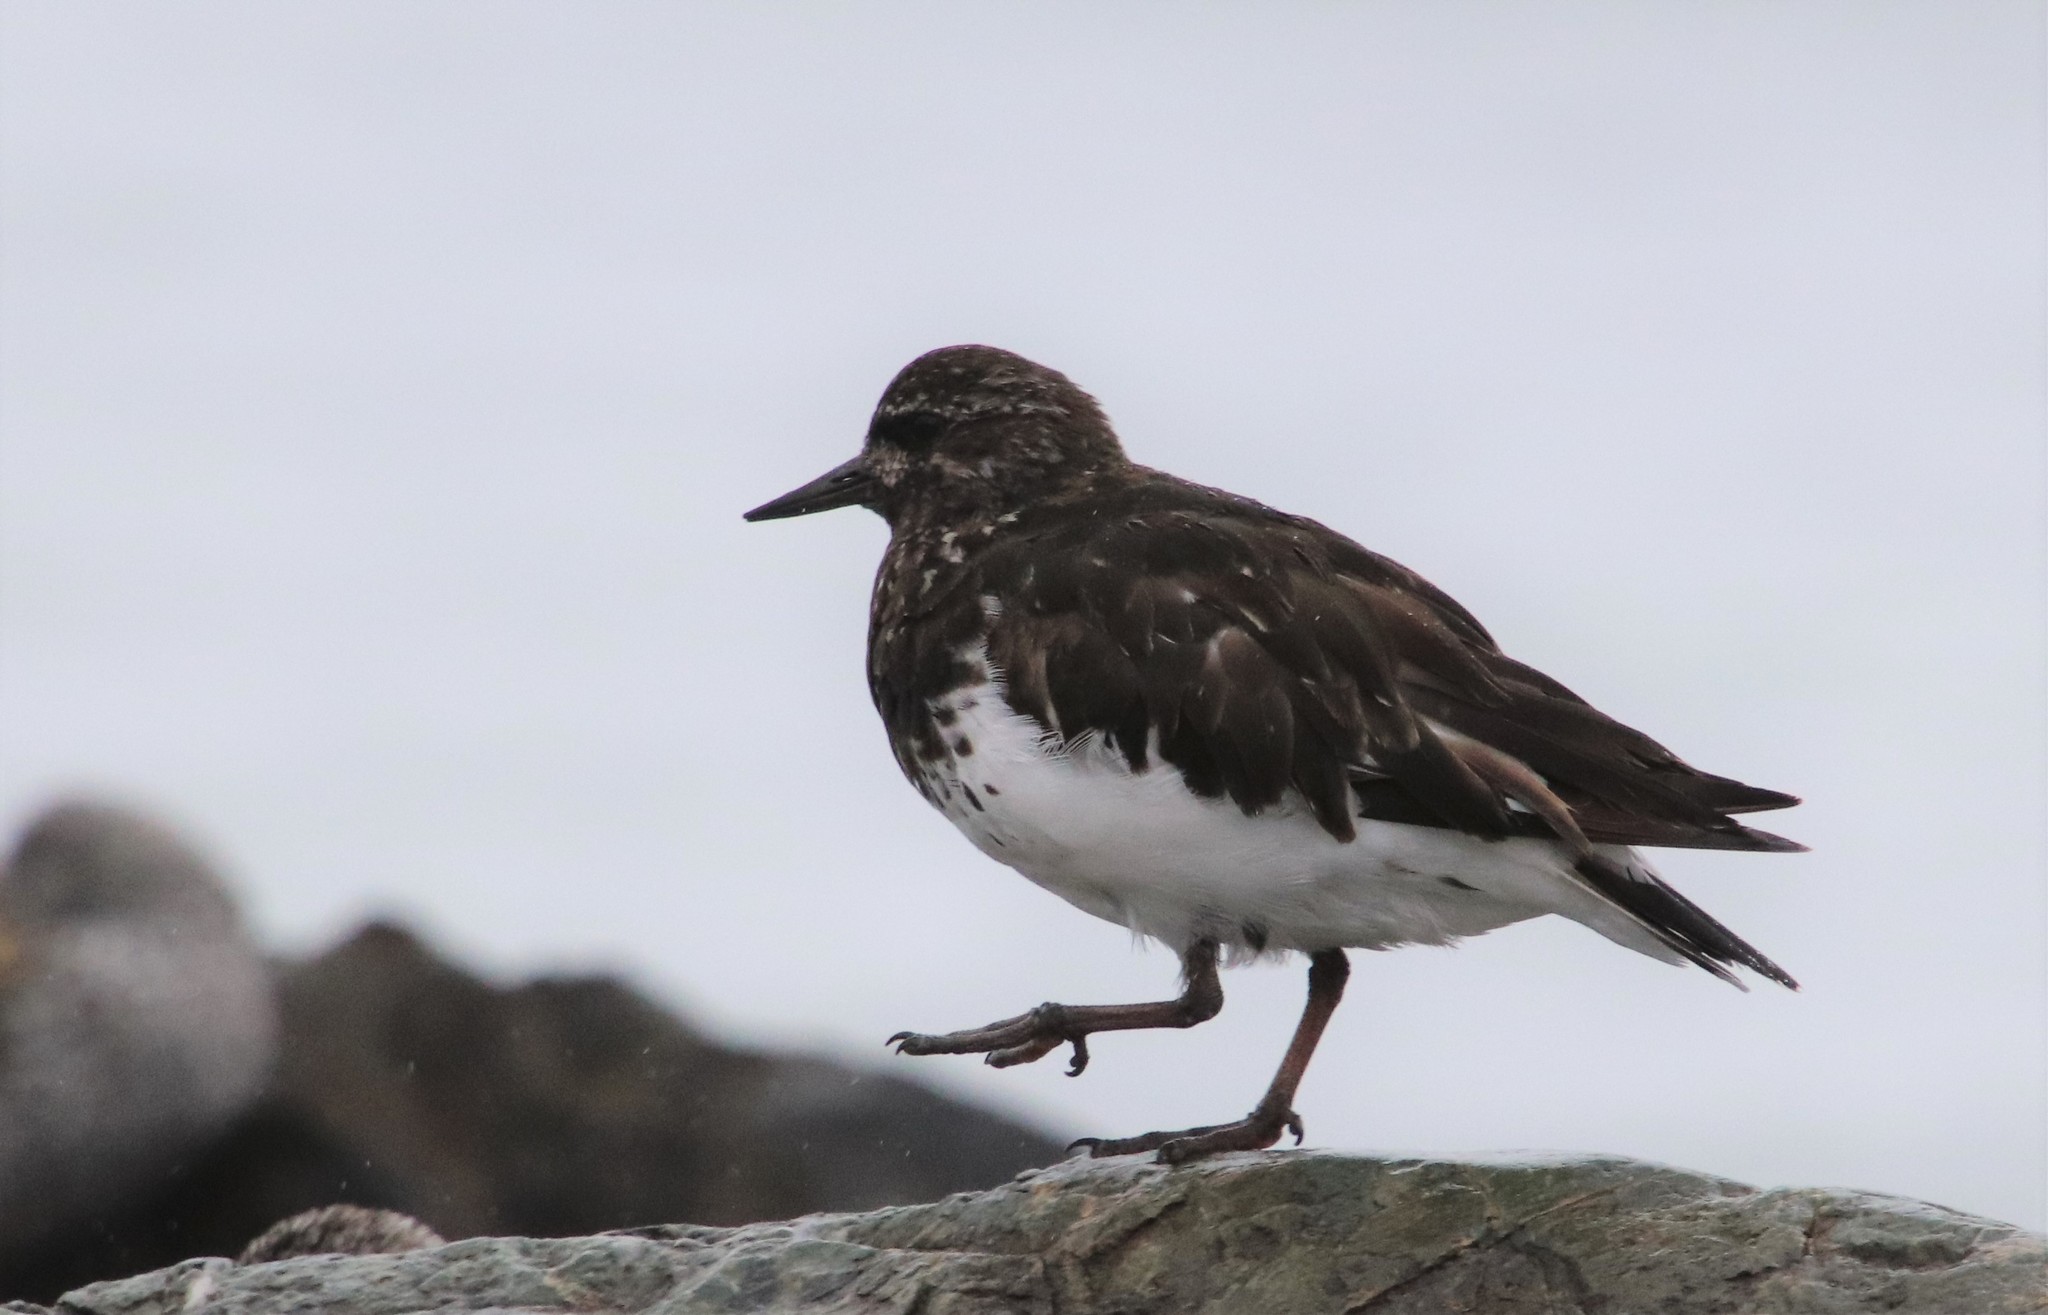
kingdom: Animalia
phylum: Chordata
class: Aves
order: Charadriiformes
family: Scolopacidae
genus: Arenaria
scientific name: Arenaria melanocephala
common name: Black turnstone
